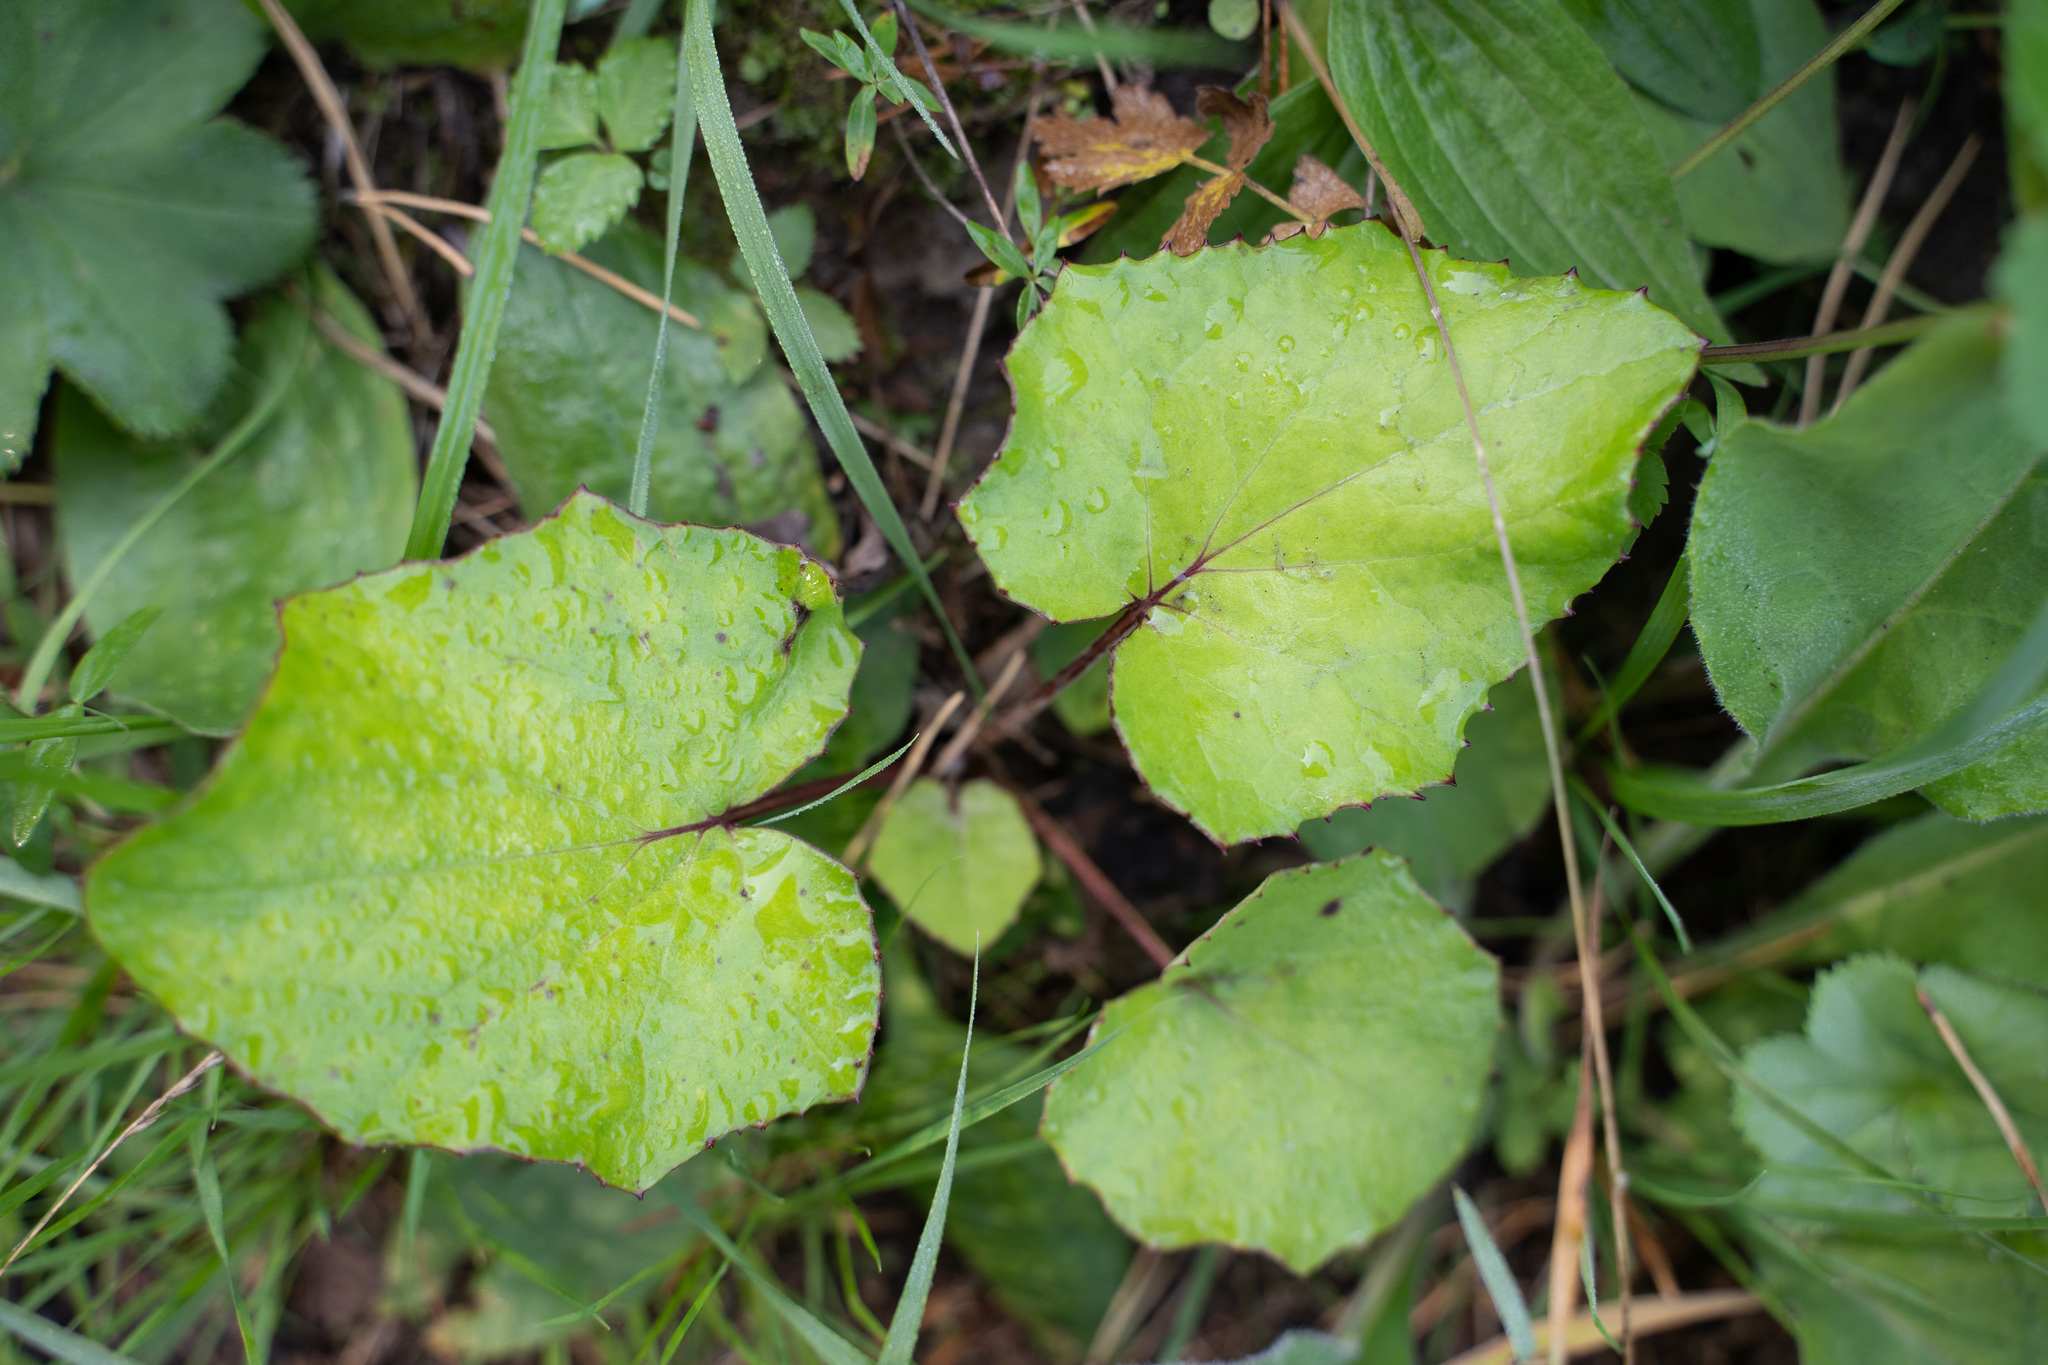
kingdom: Plantae
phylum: Tracheophyta
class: Magnoliopsida
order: Asterales
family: Asteraceae
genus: Tussilago
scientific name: Tussilago farfara
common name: Coltsfoot
